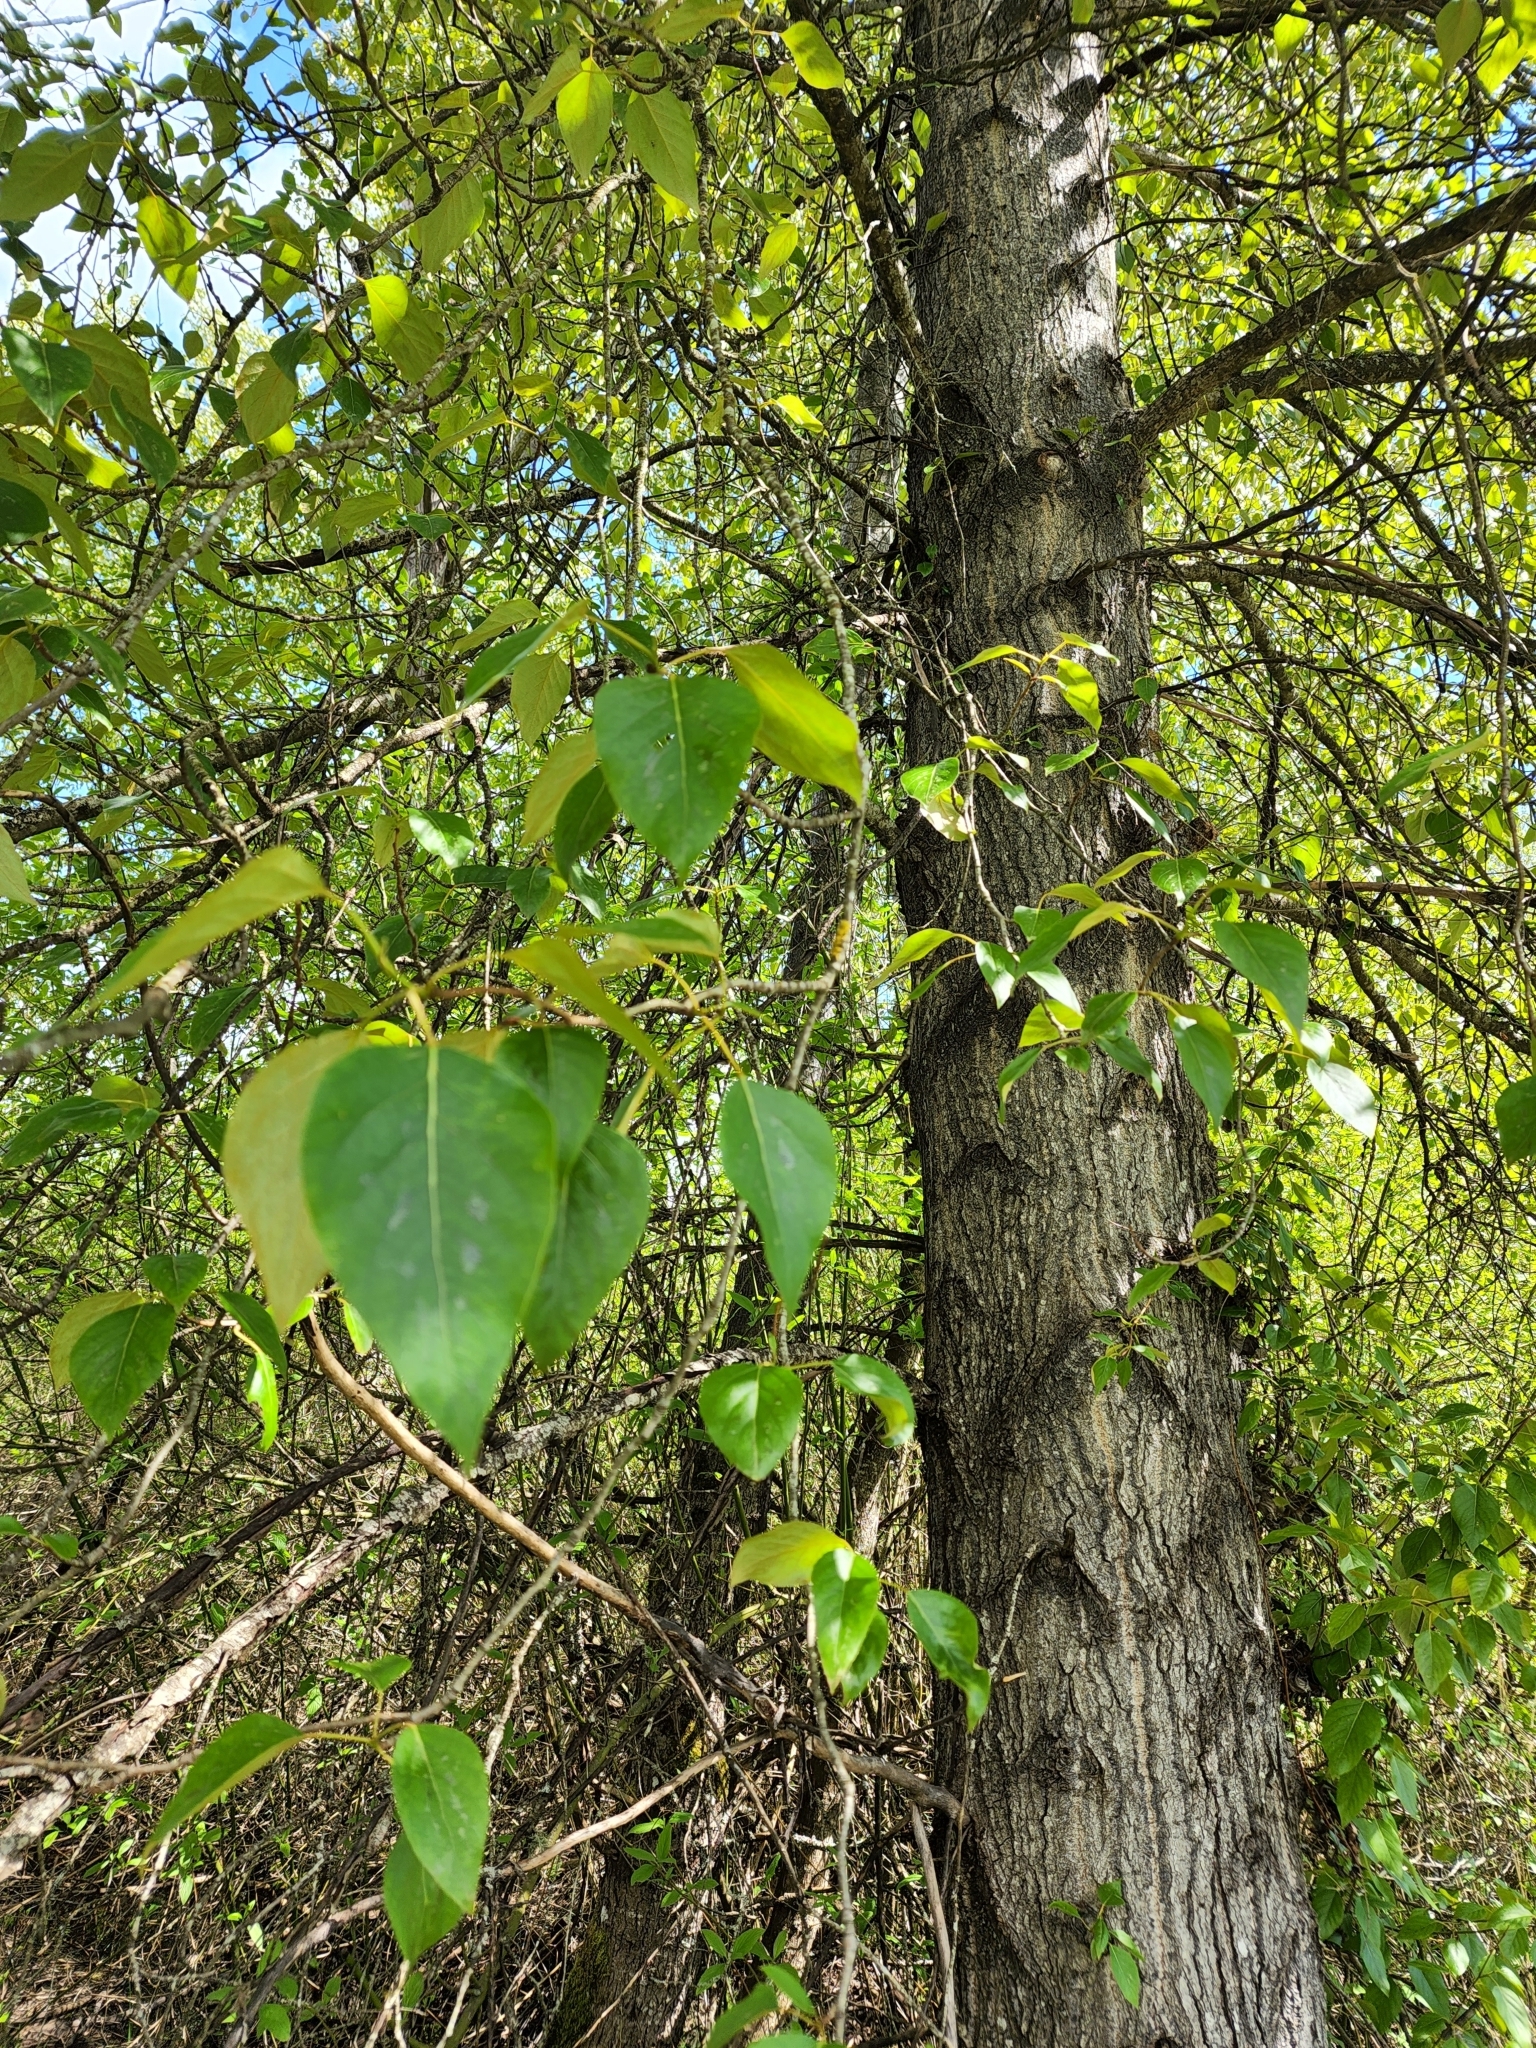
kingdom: Plantae
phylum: Tracheophyta
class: Magnoliopsida
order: Malpighiales
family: Salicaceae
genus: Populus
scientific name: Populus trichocarpa
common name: Black cottonwood
